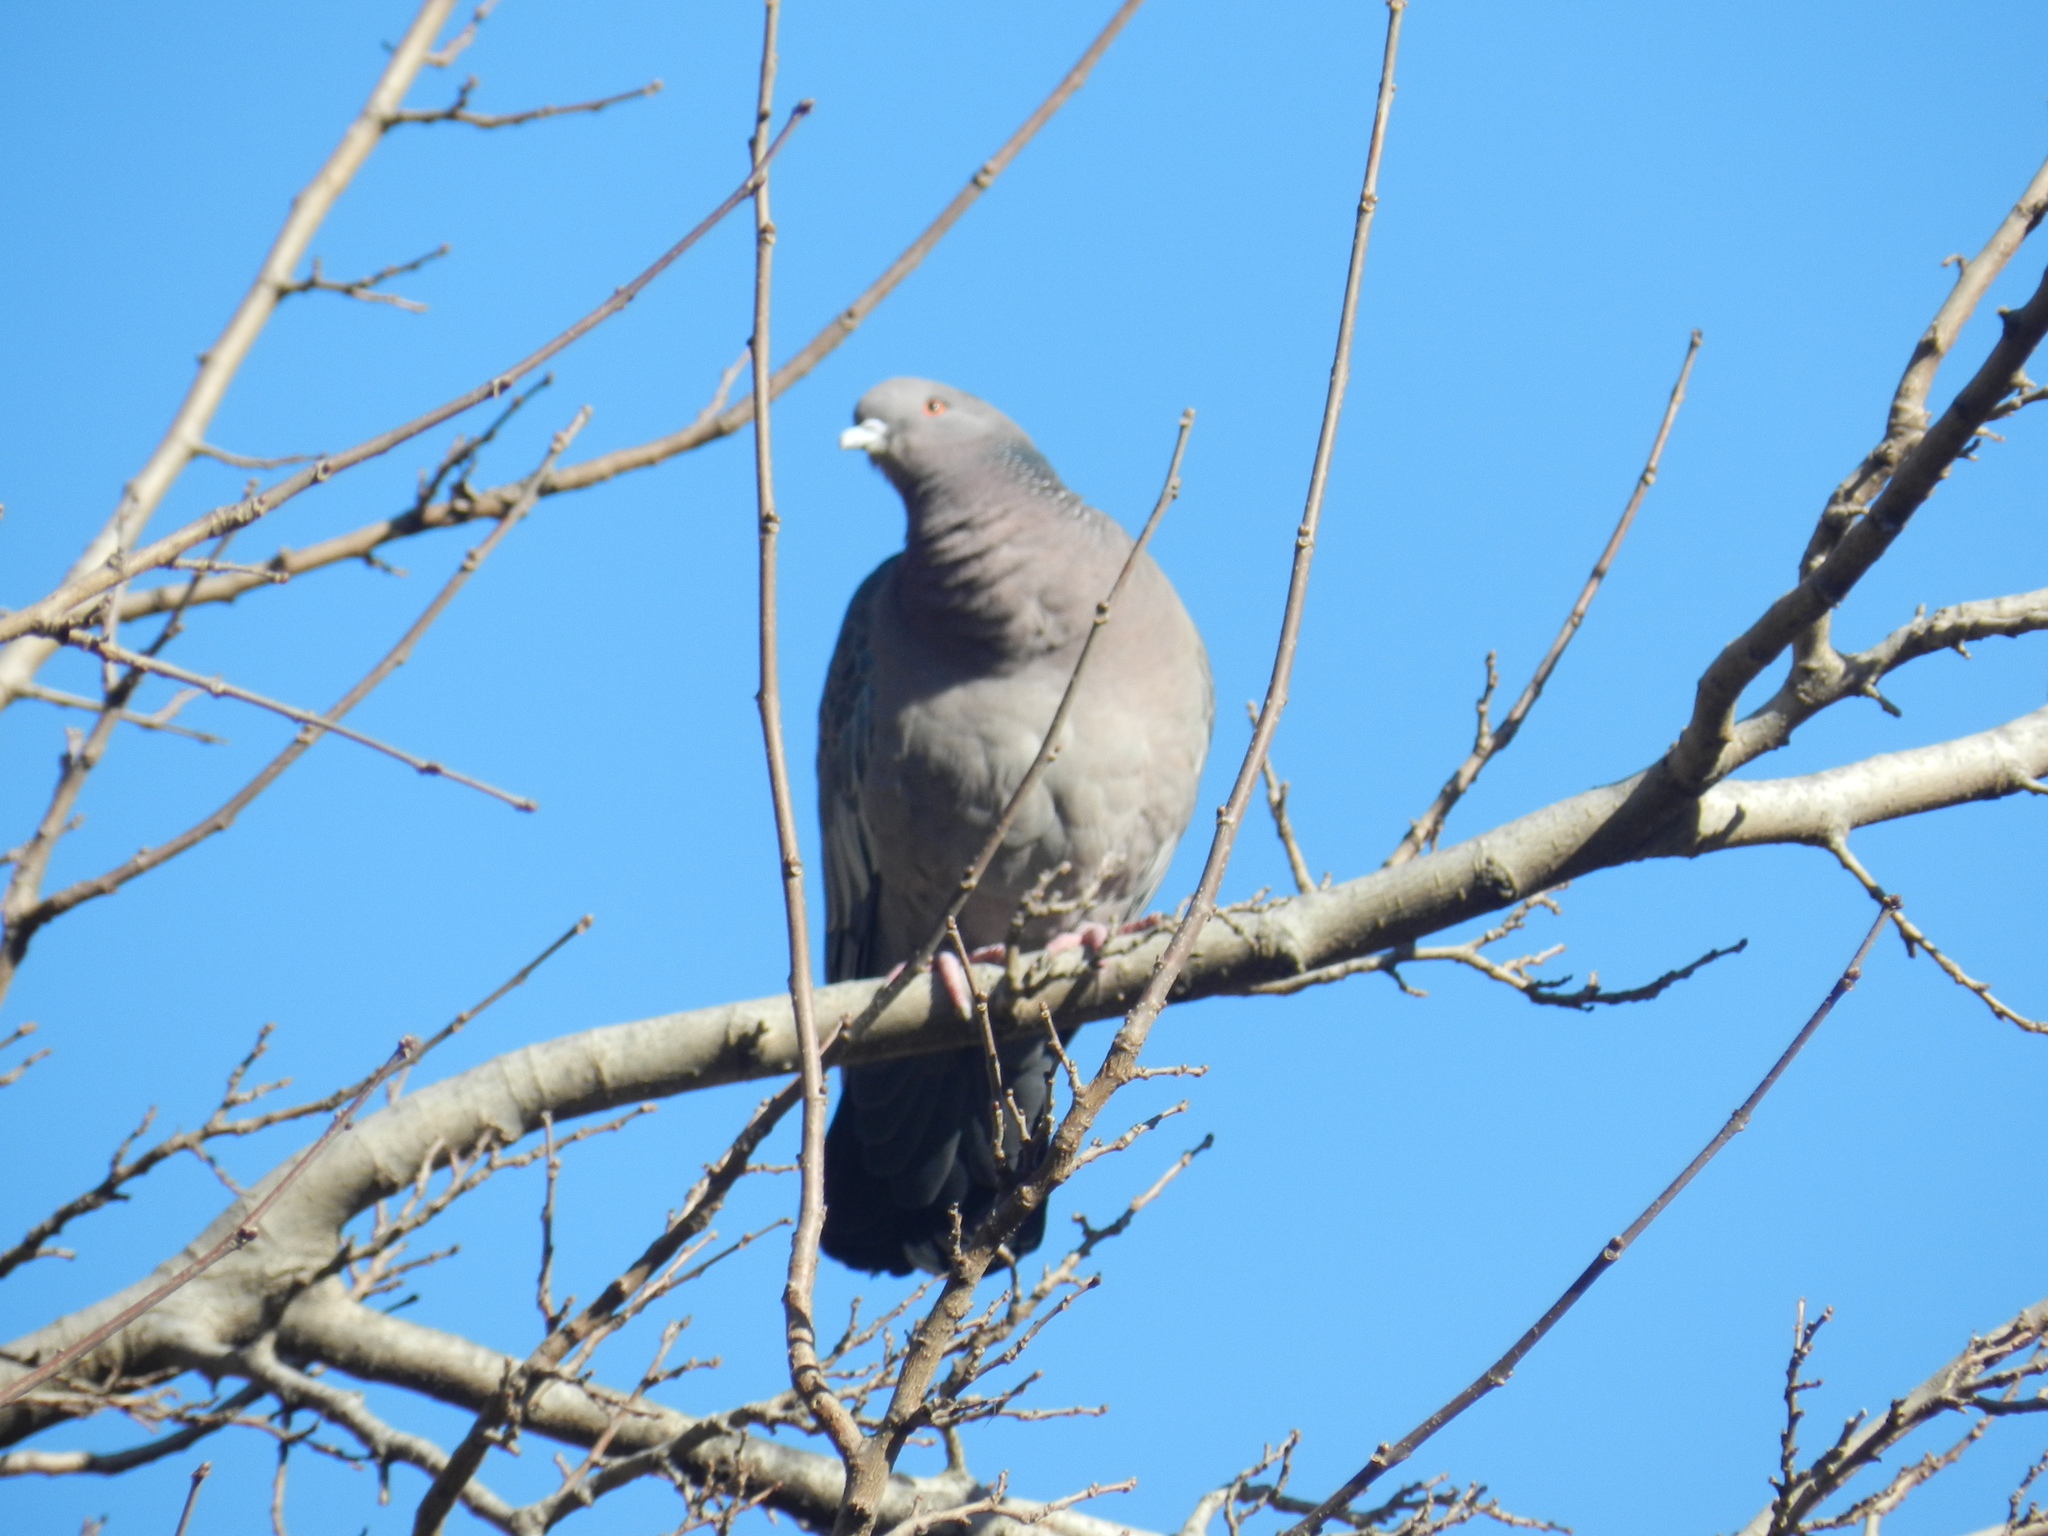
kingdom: Animalia
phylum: Chordata
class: Aves
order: Columbiformes
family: Columbidae
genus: Patagioenas
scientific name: Patagioenas picazuro
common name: Picazuro pigeon
